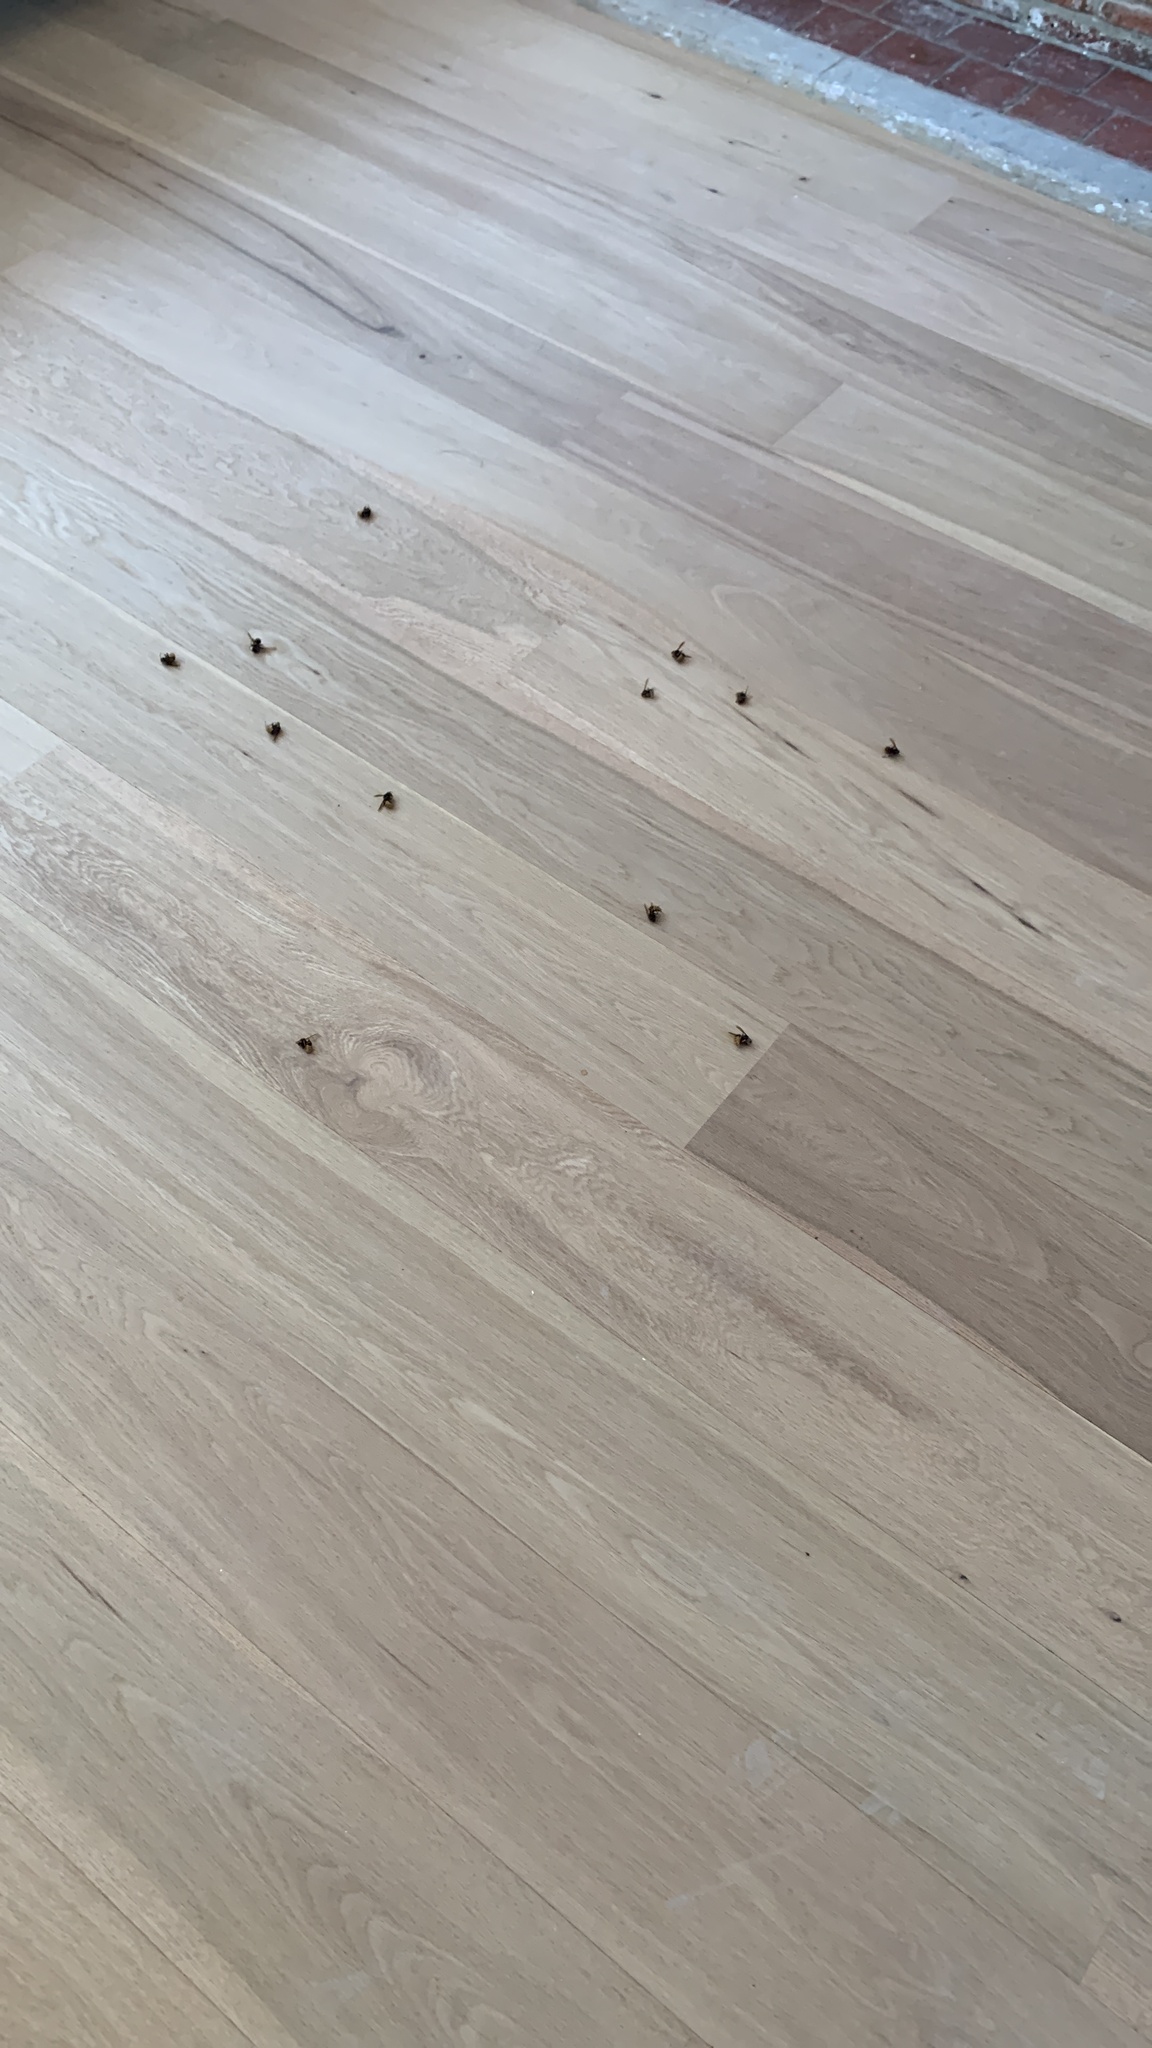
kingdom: Animalia
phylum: Arthropoda
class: Insecta
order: Hymenoptera
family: Vespidae
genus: Vespa
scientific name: Vespa crabro
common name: Hornet
